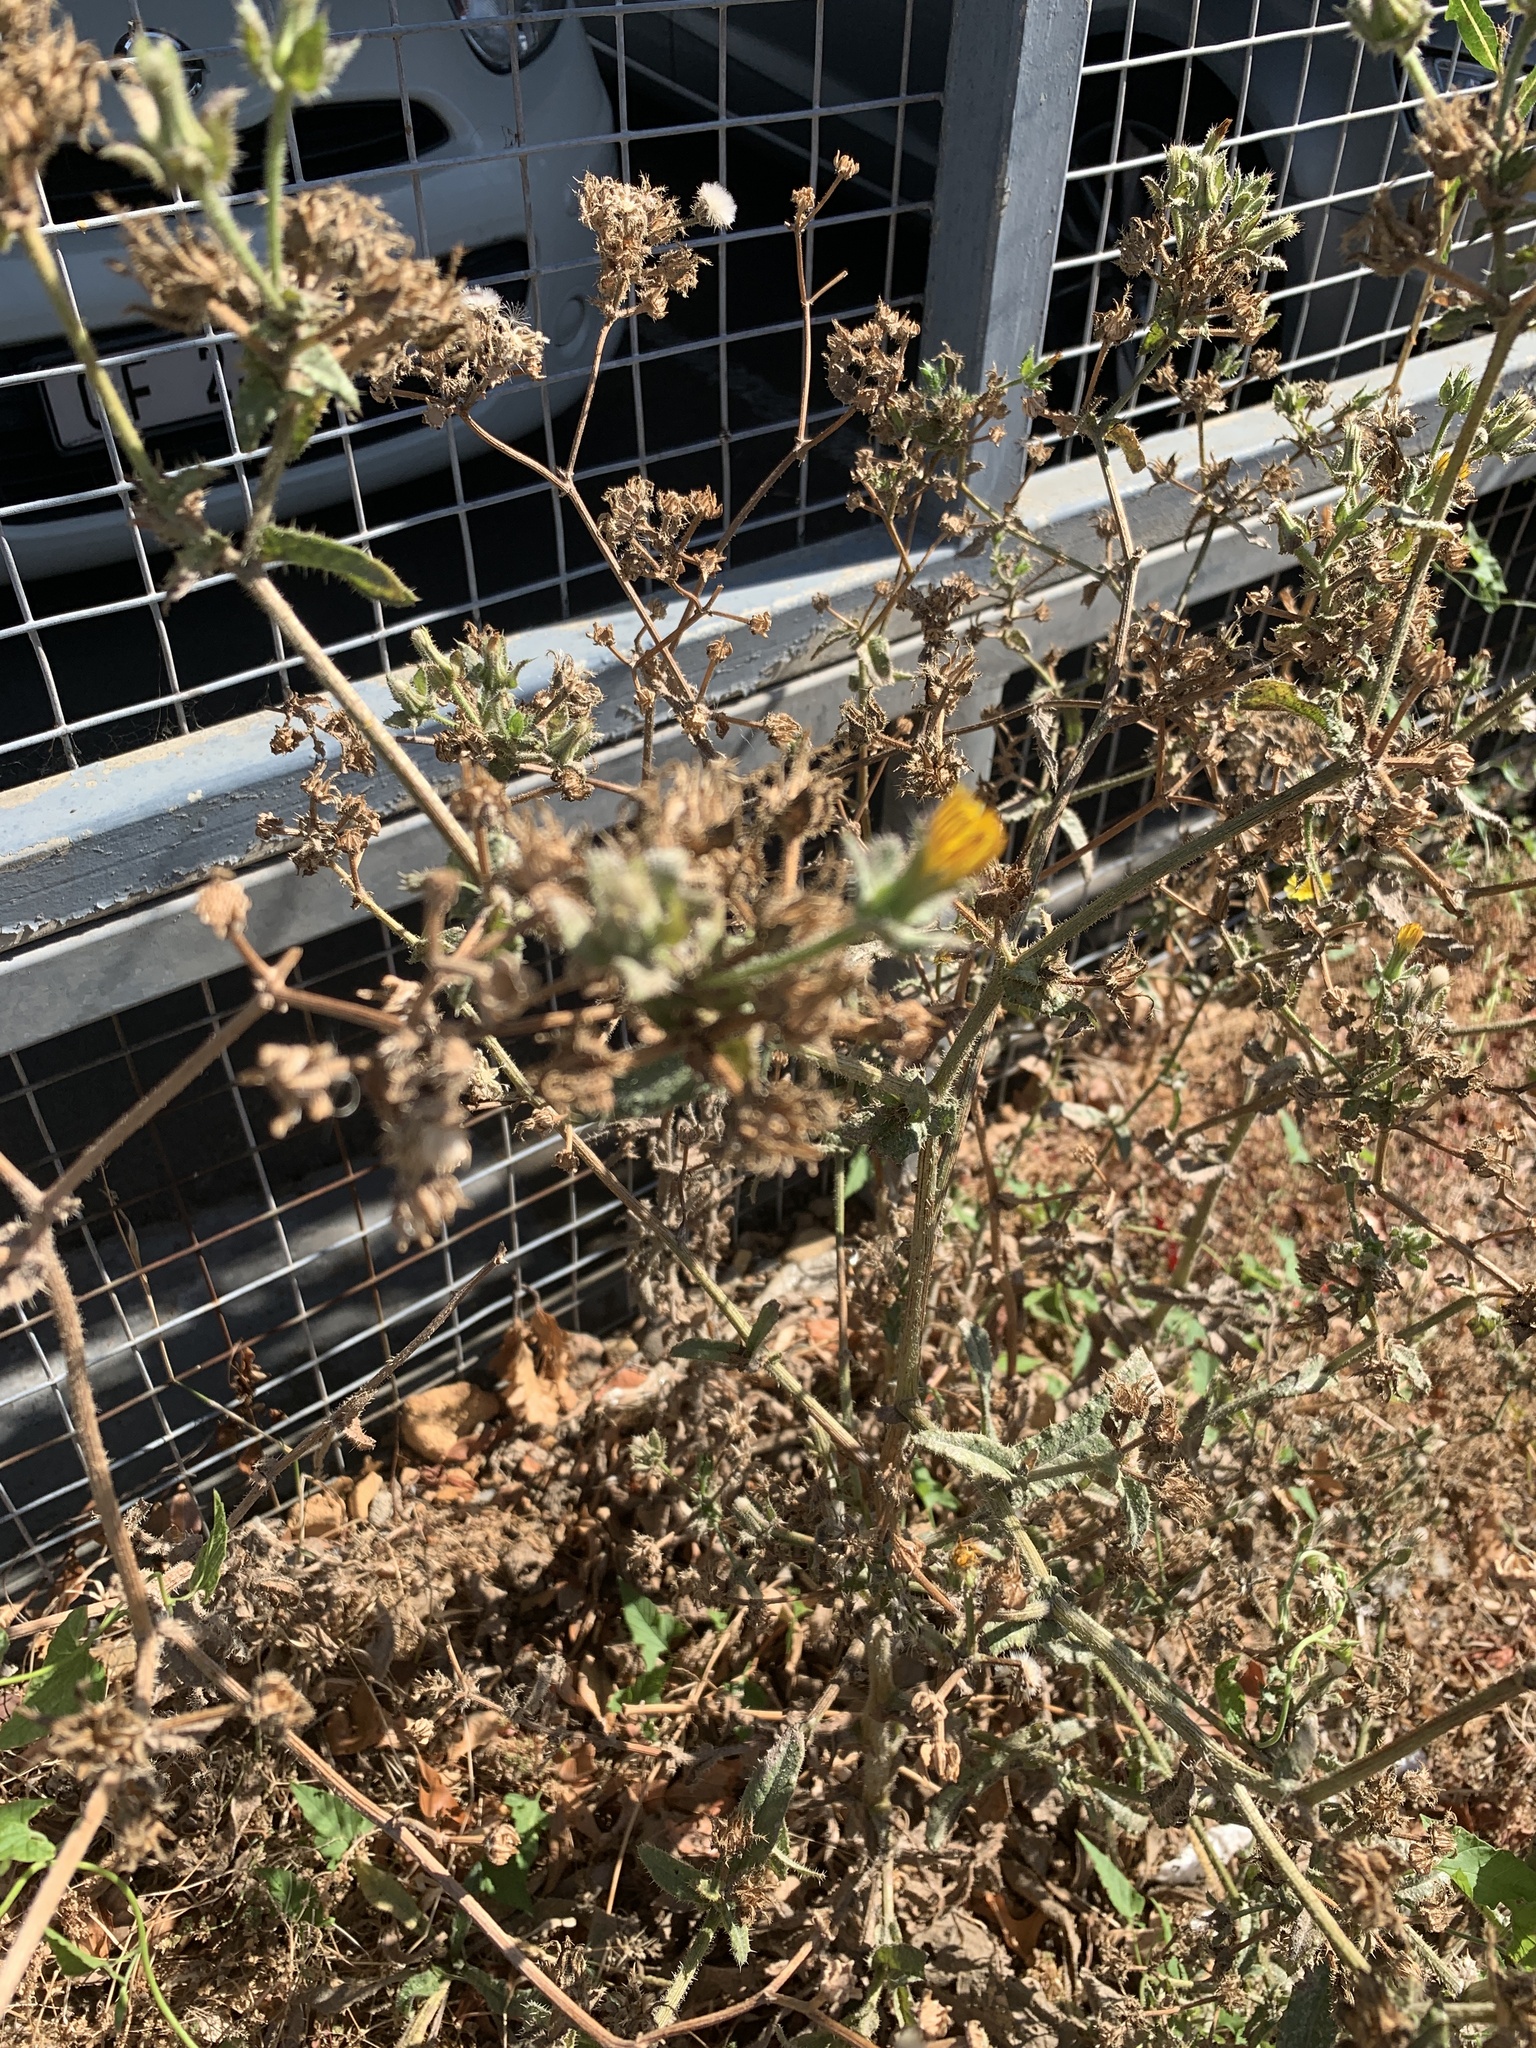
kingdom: Plantae
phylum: Tracheophyta
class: Magnoliopsida
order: Asterales
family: Asteraceae
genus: Helminthotheca
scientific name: Helminthotheca echioides
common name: Ox-tongue
